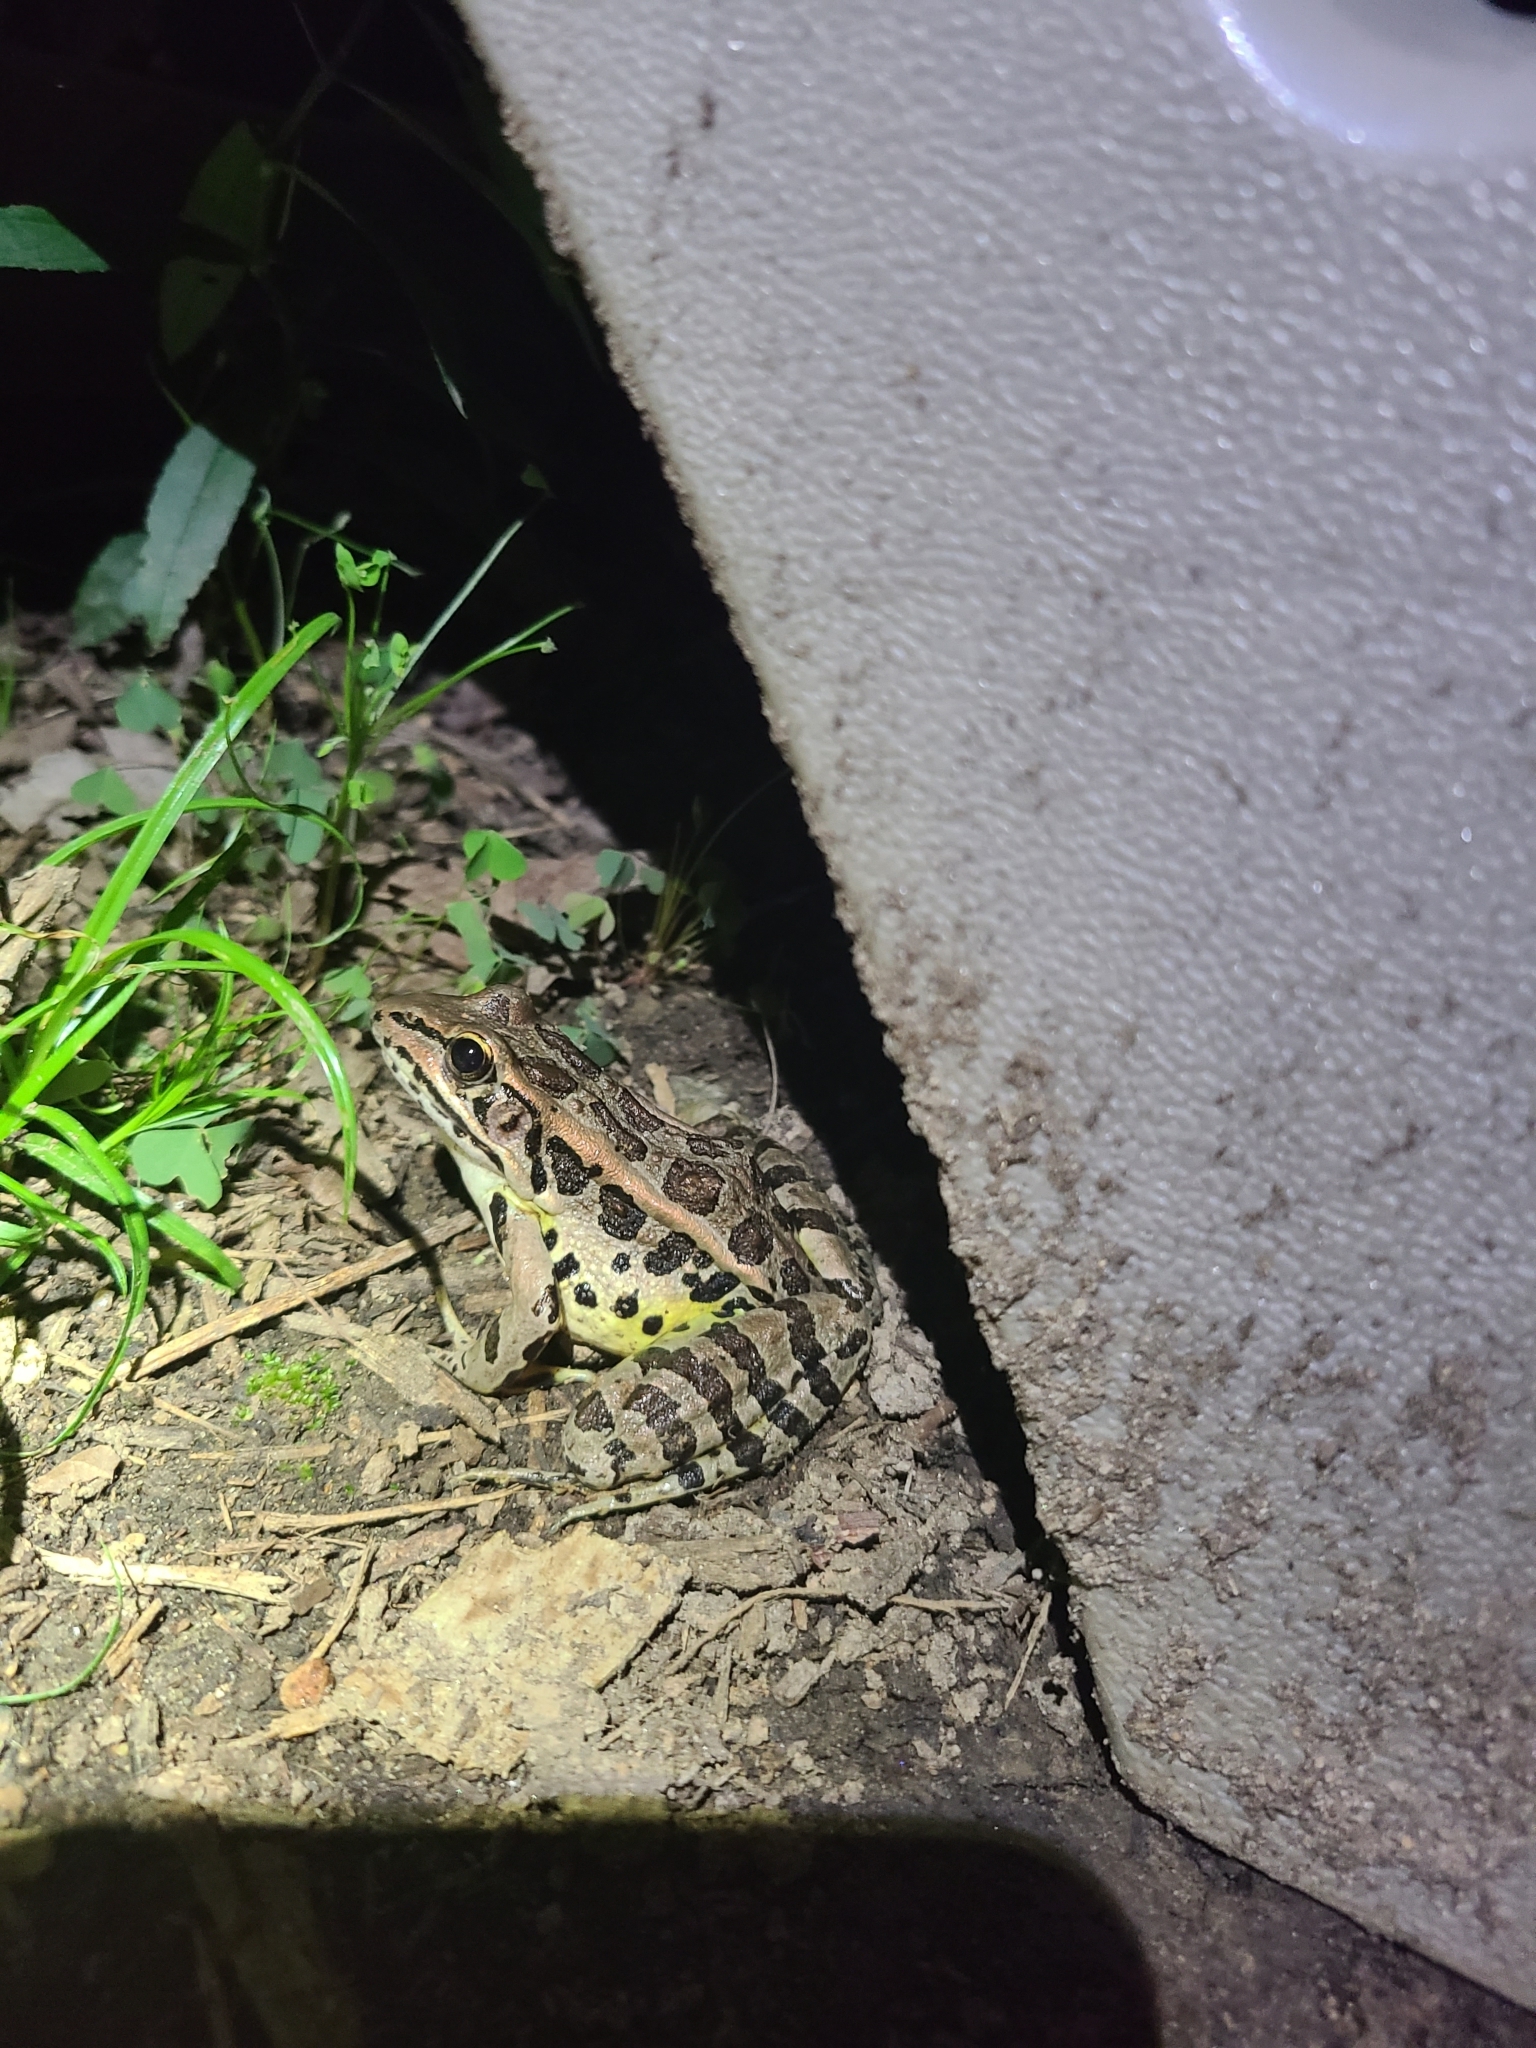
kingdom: Animalia
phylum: Chordata
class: Amphibia
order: Anura
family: Ranidae
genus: Lithobates
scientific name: Lithobates palustris
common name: Pickerel frog
